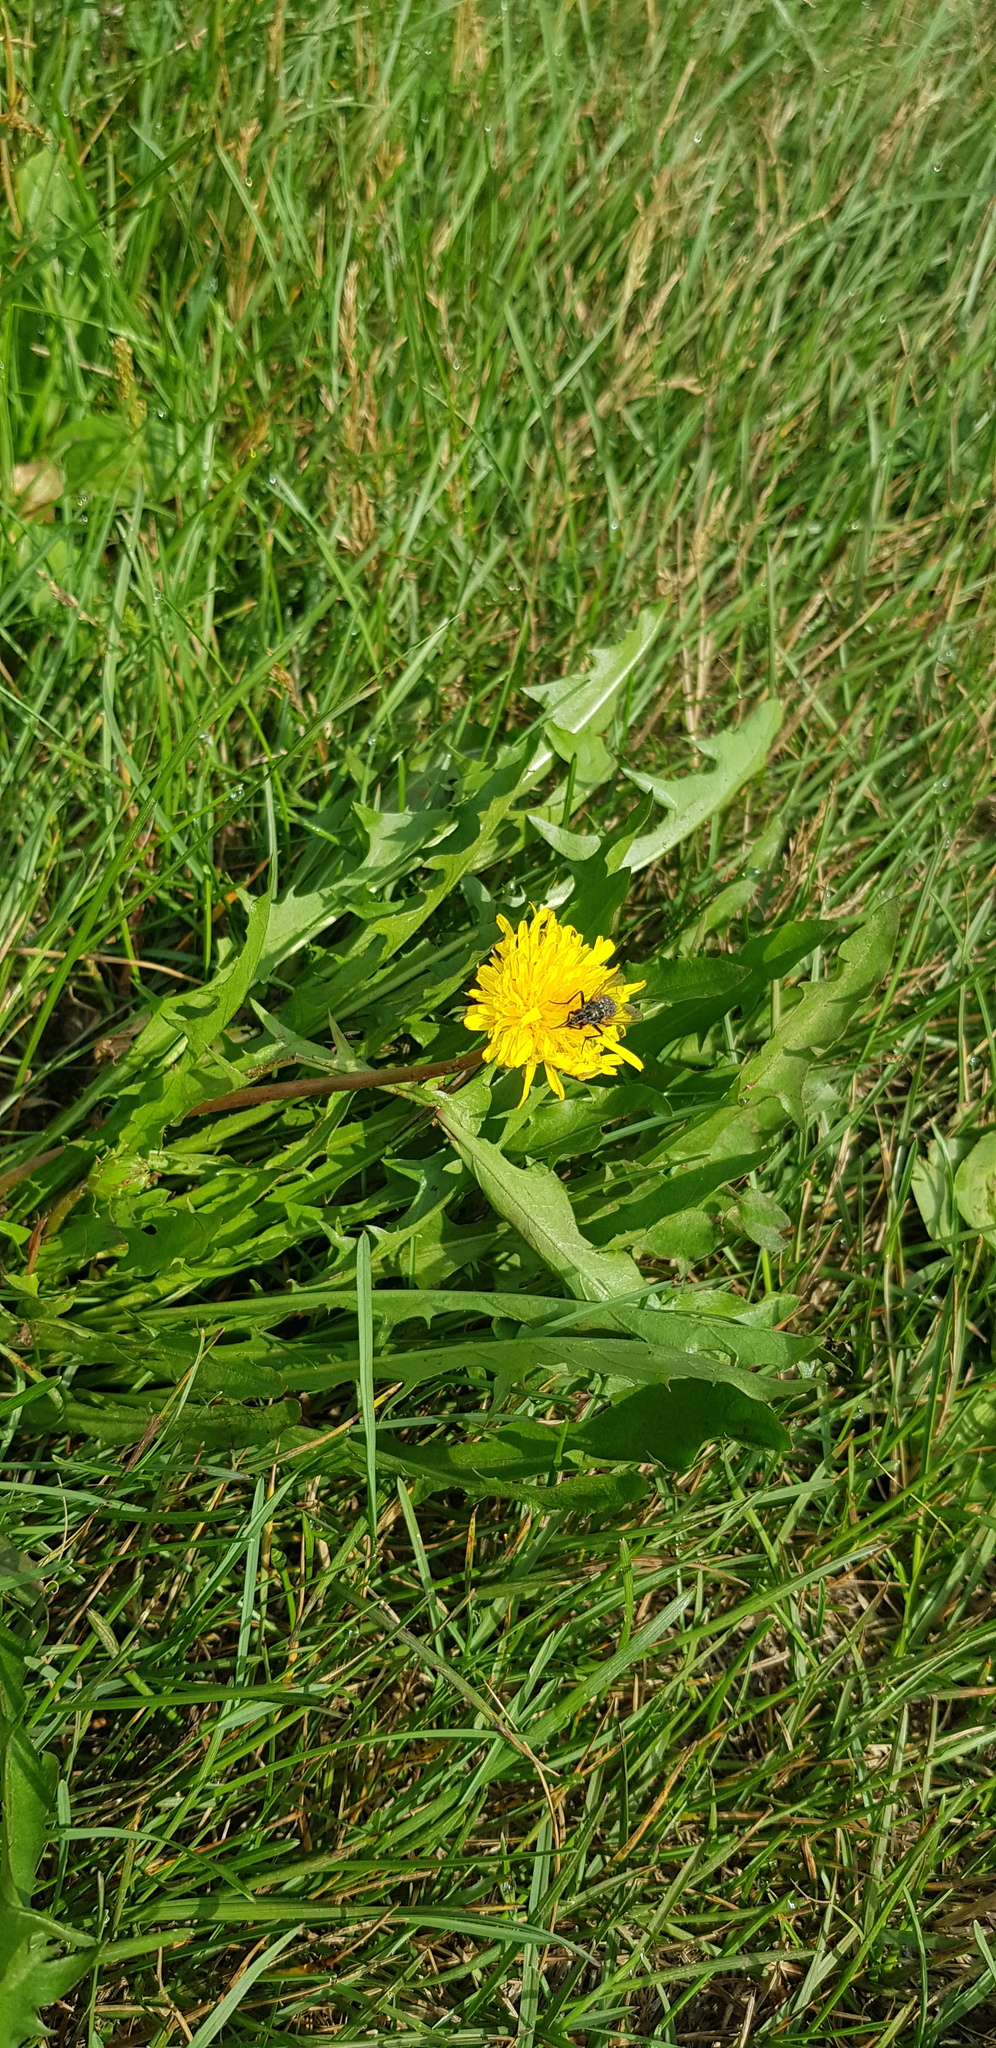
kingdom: Plantae
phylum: Tracheophyta
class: Magnoliopsida
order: Asterales
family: Asteraceae
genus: Taraxacum
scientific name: Taraxacum officinale
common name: Common dandelion
